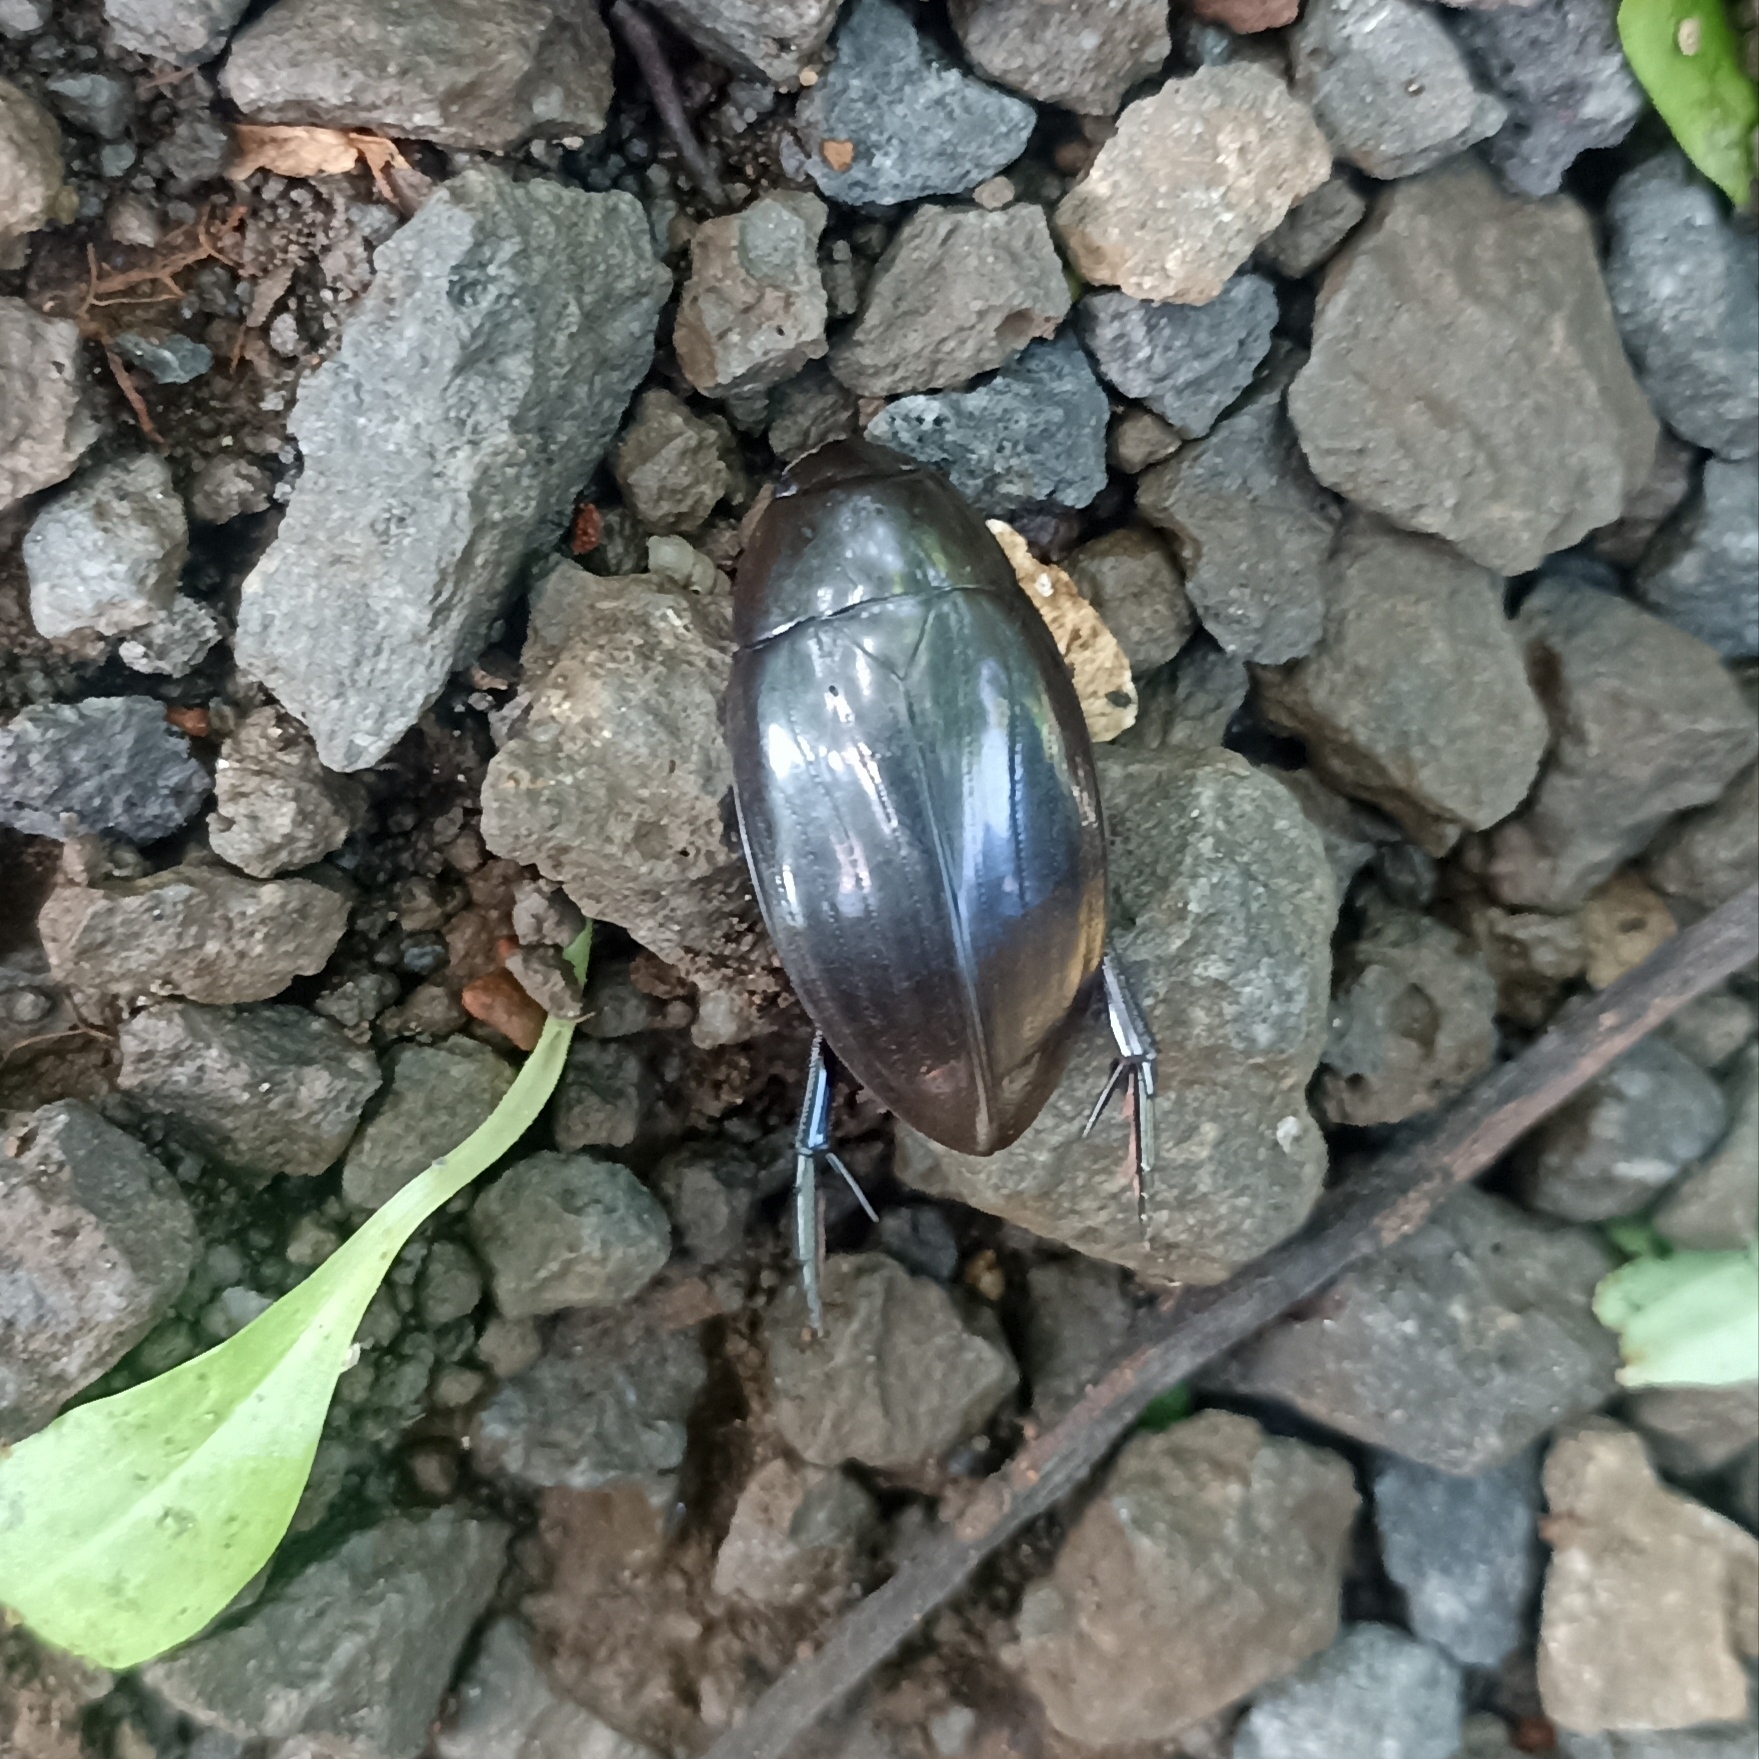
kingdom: Animalia
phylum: Arthropoda
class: Insecta
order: Coleoptera
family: Hydrophilidae
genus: Hydrophilus
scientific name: Hydrophilus
